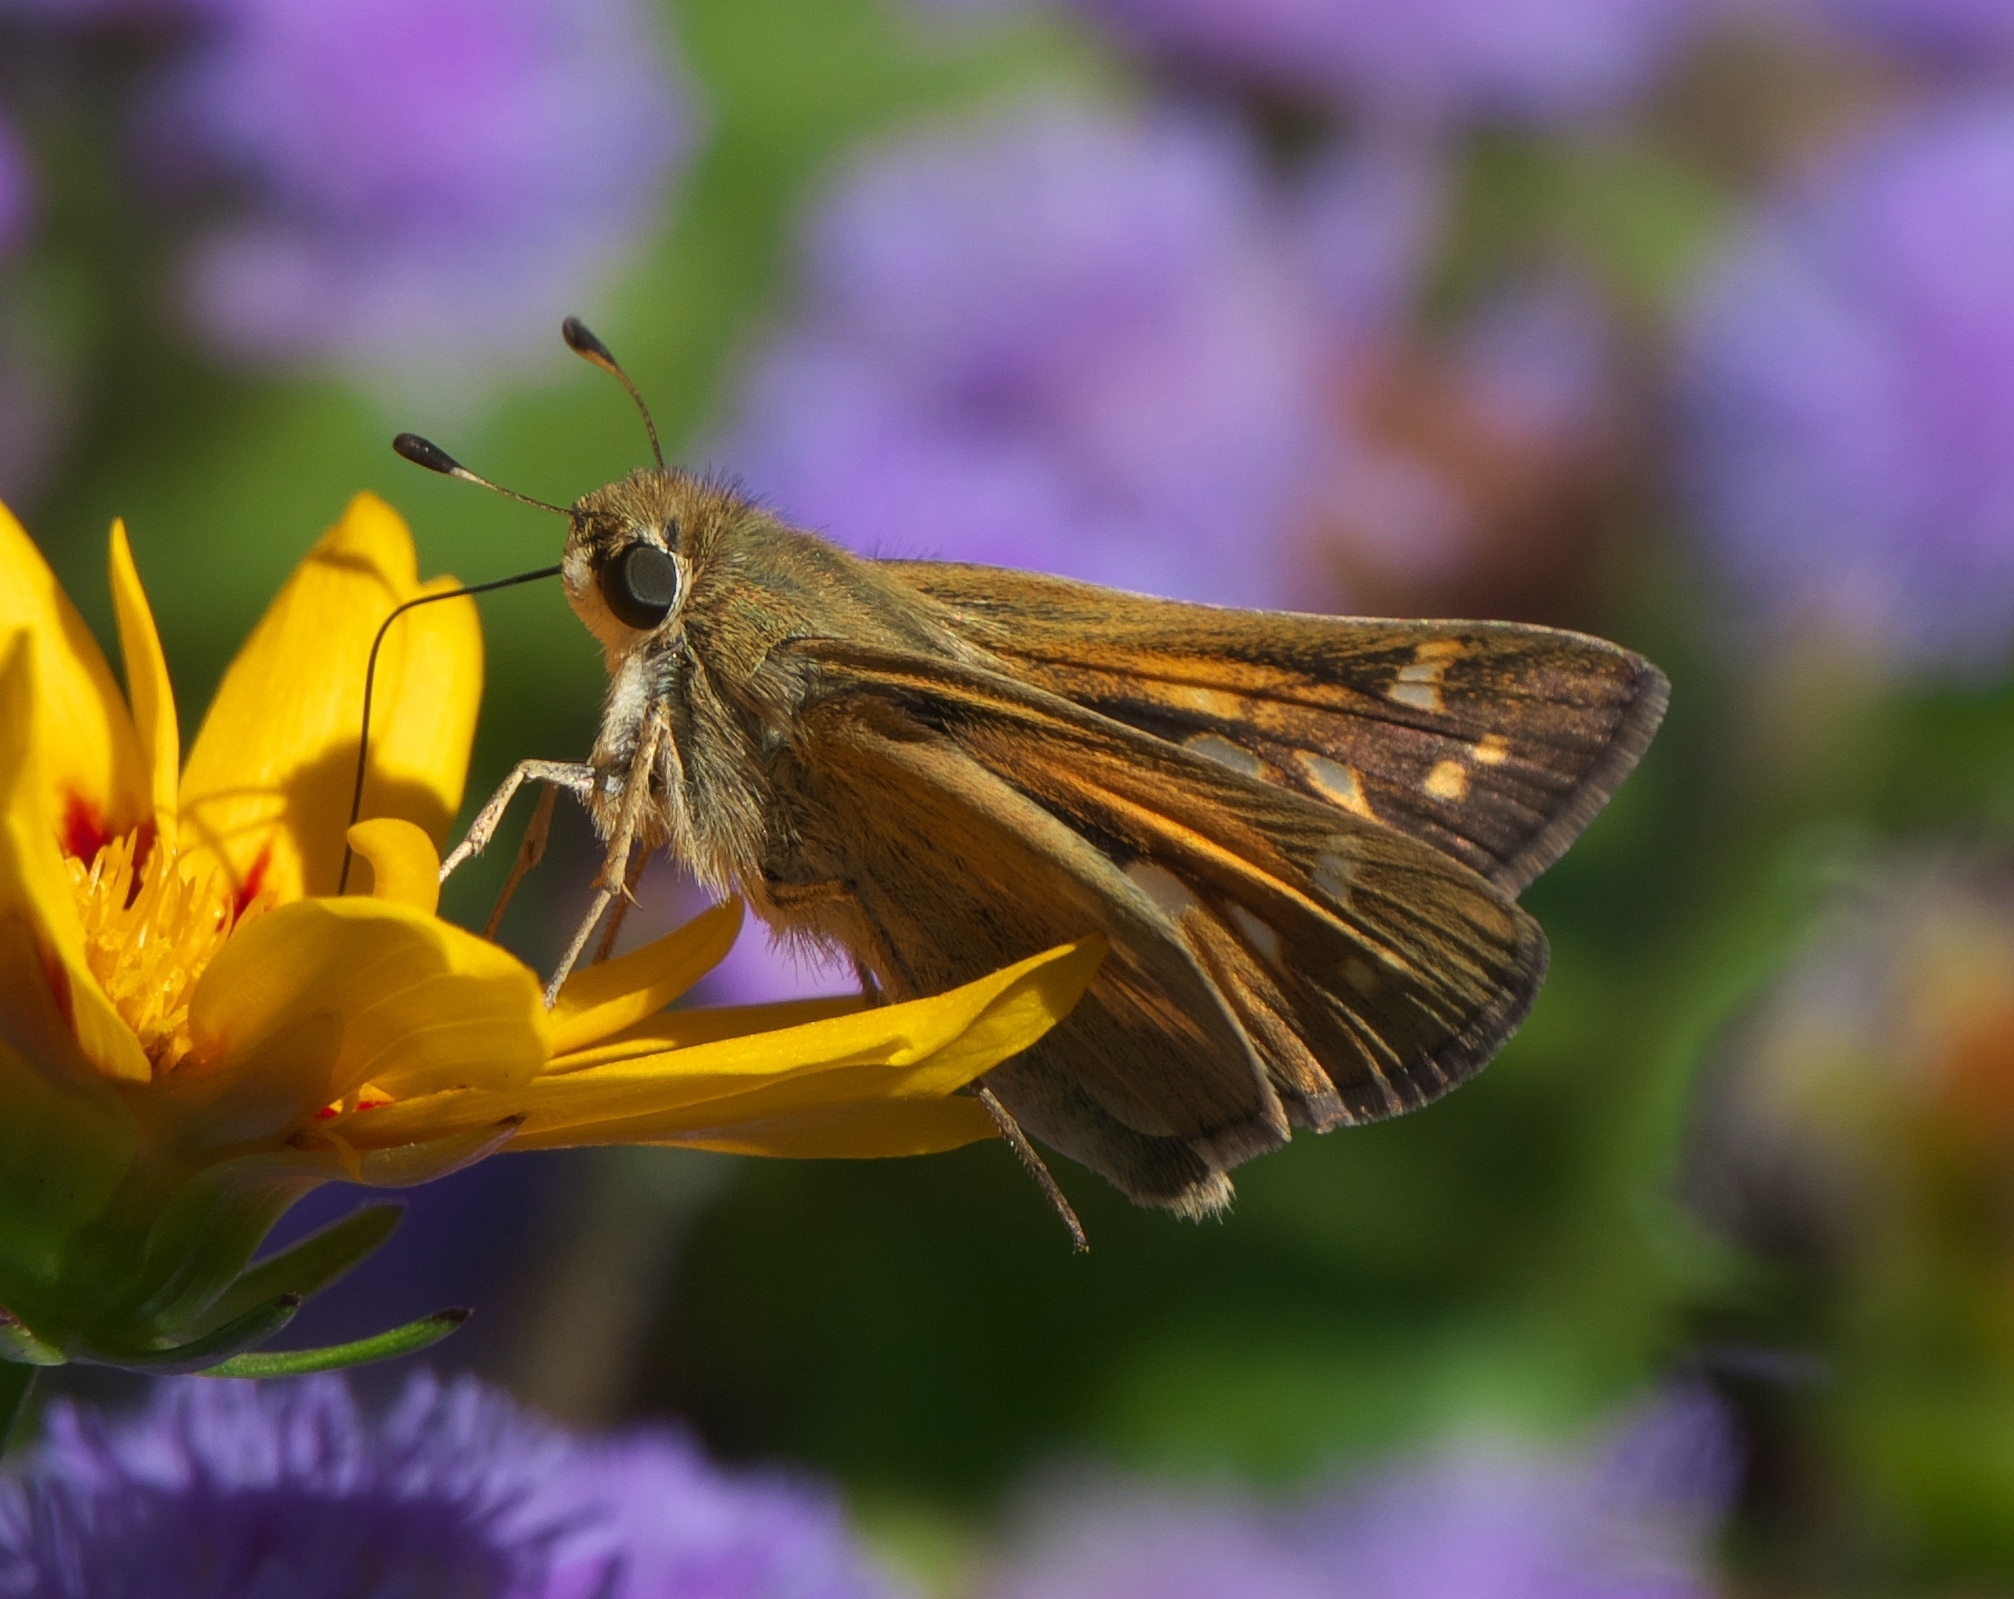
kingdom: Animalia
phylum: Arthropoda
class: Insecta
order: Lepidoptera
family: Hesperiidae
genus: Atalopedes
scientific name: Atalopedes
